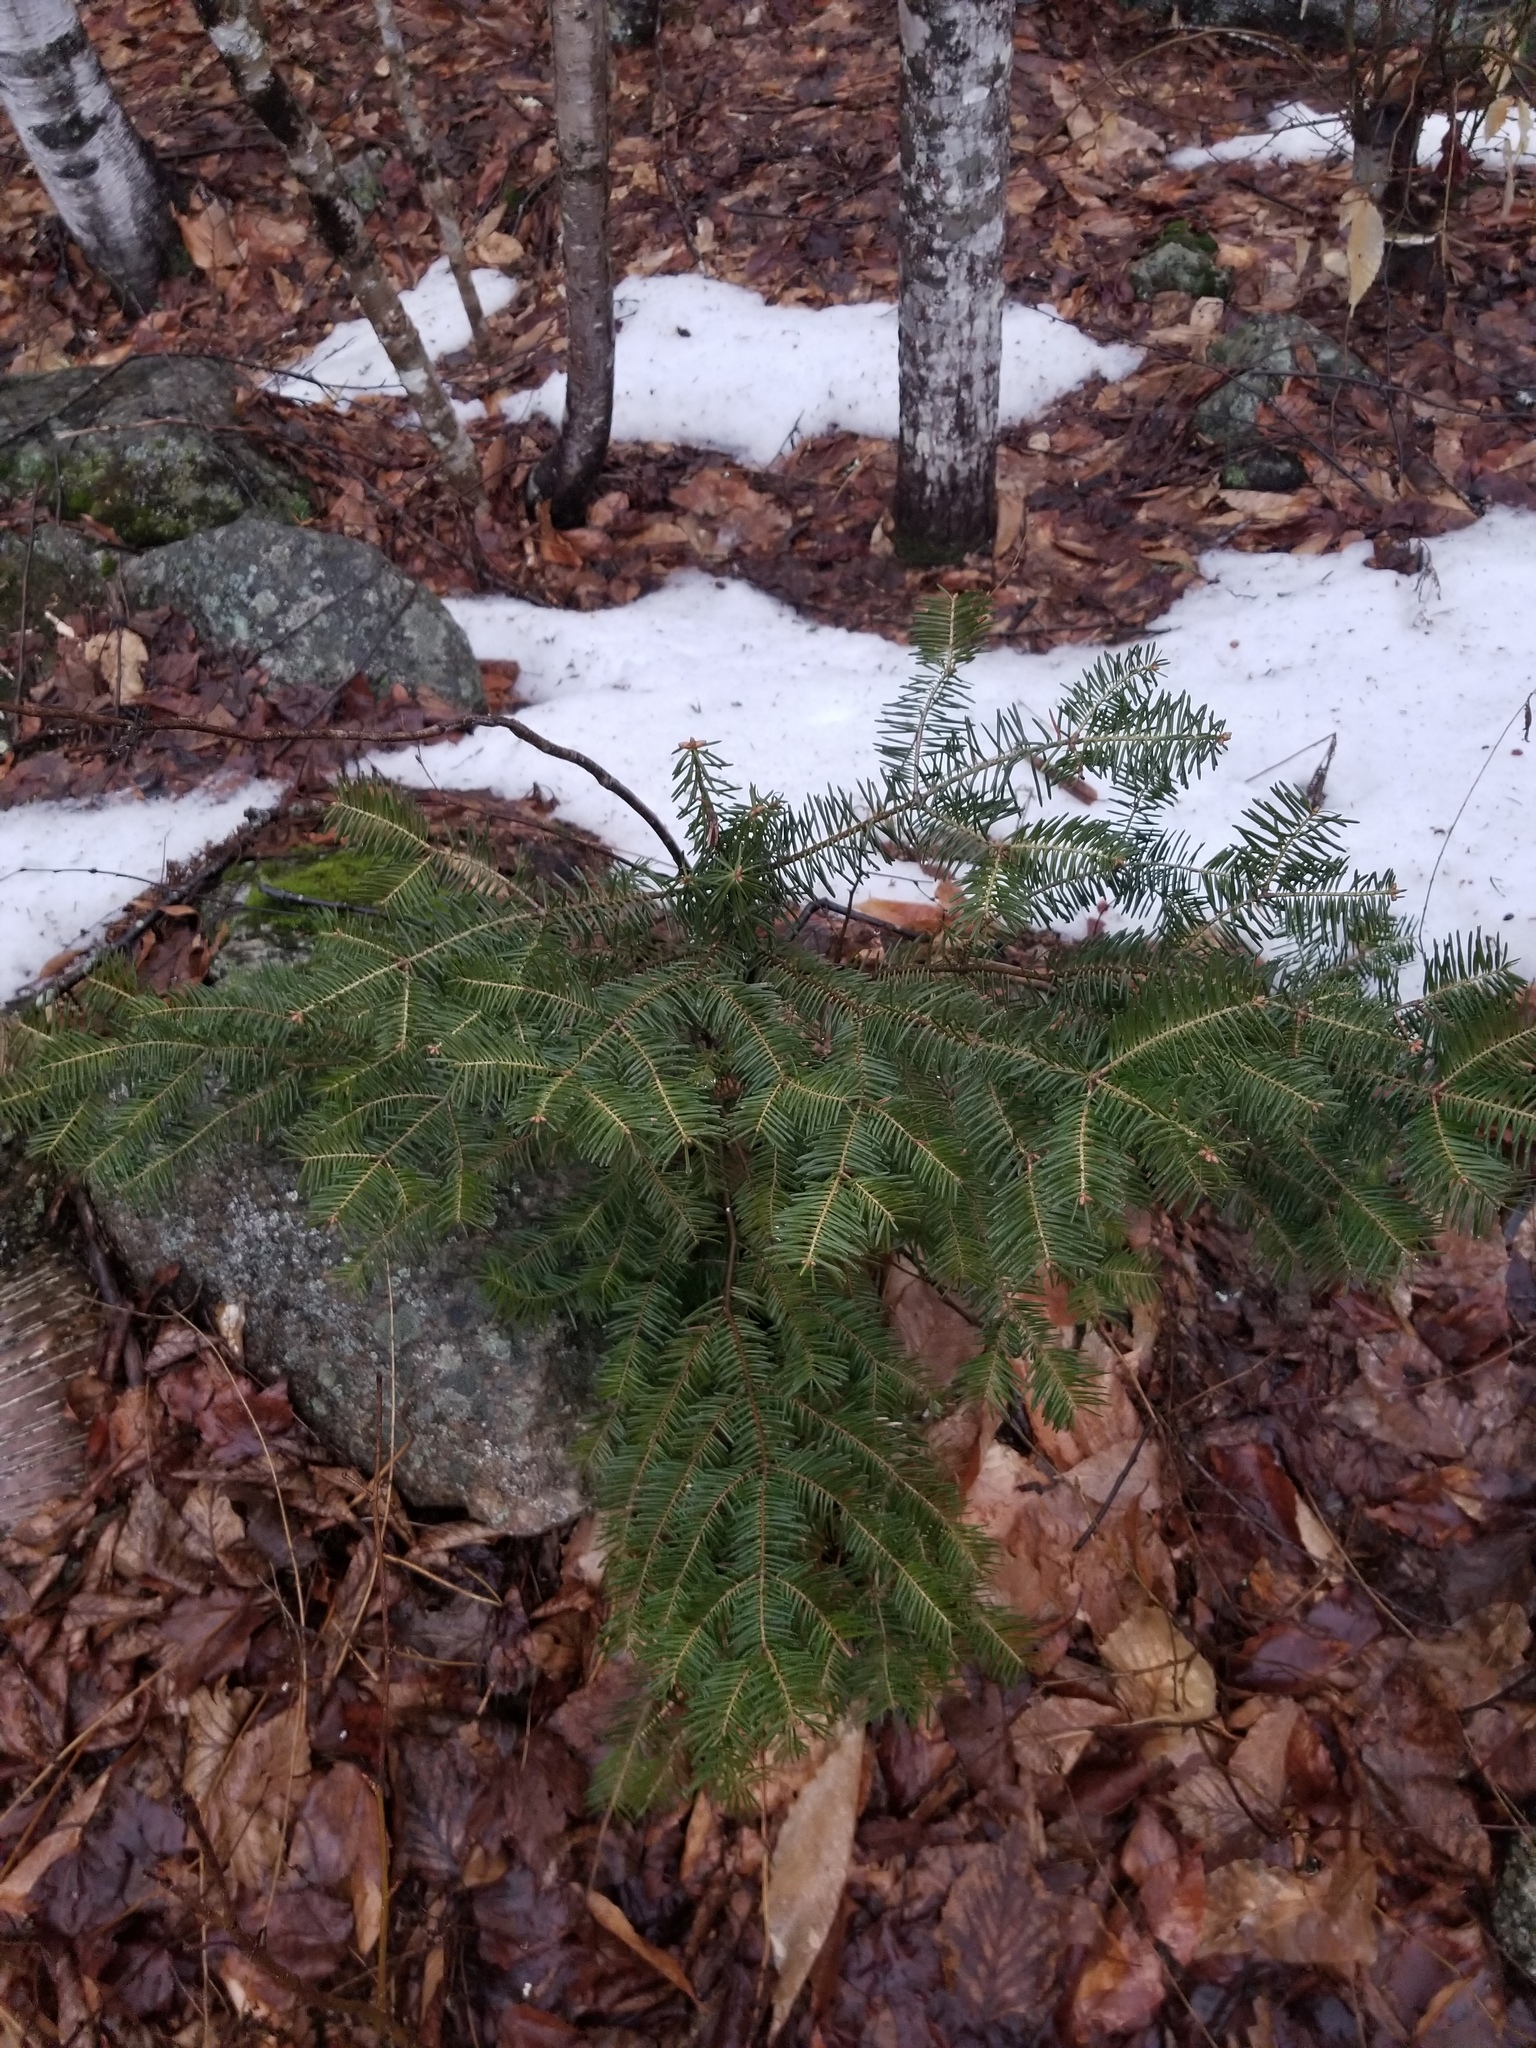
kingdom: Plantae
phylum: Tracheophyta
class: Pinopsida
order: Pinales
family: Pinaceae
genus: Abies
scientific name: Abies balsamea
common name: Balsam fir
